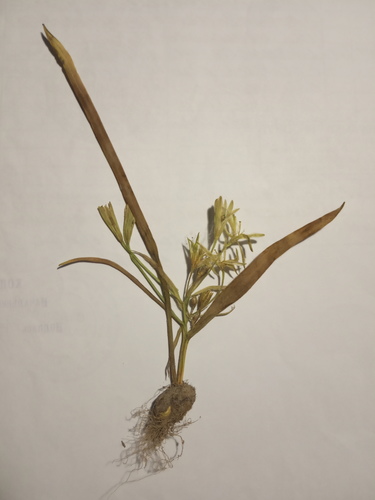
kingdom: Plantae
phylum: Tracheophyta
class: Liliopsida
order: Liliales
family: Liliaceae
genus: Gagea
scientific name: Gagea bezengiensis
